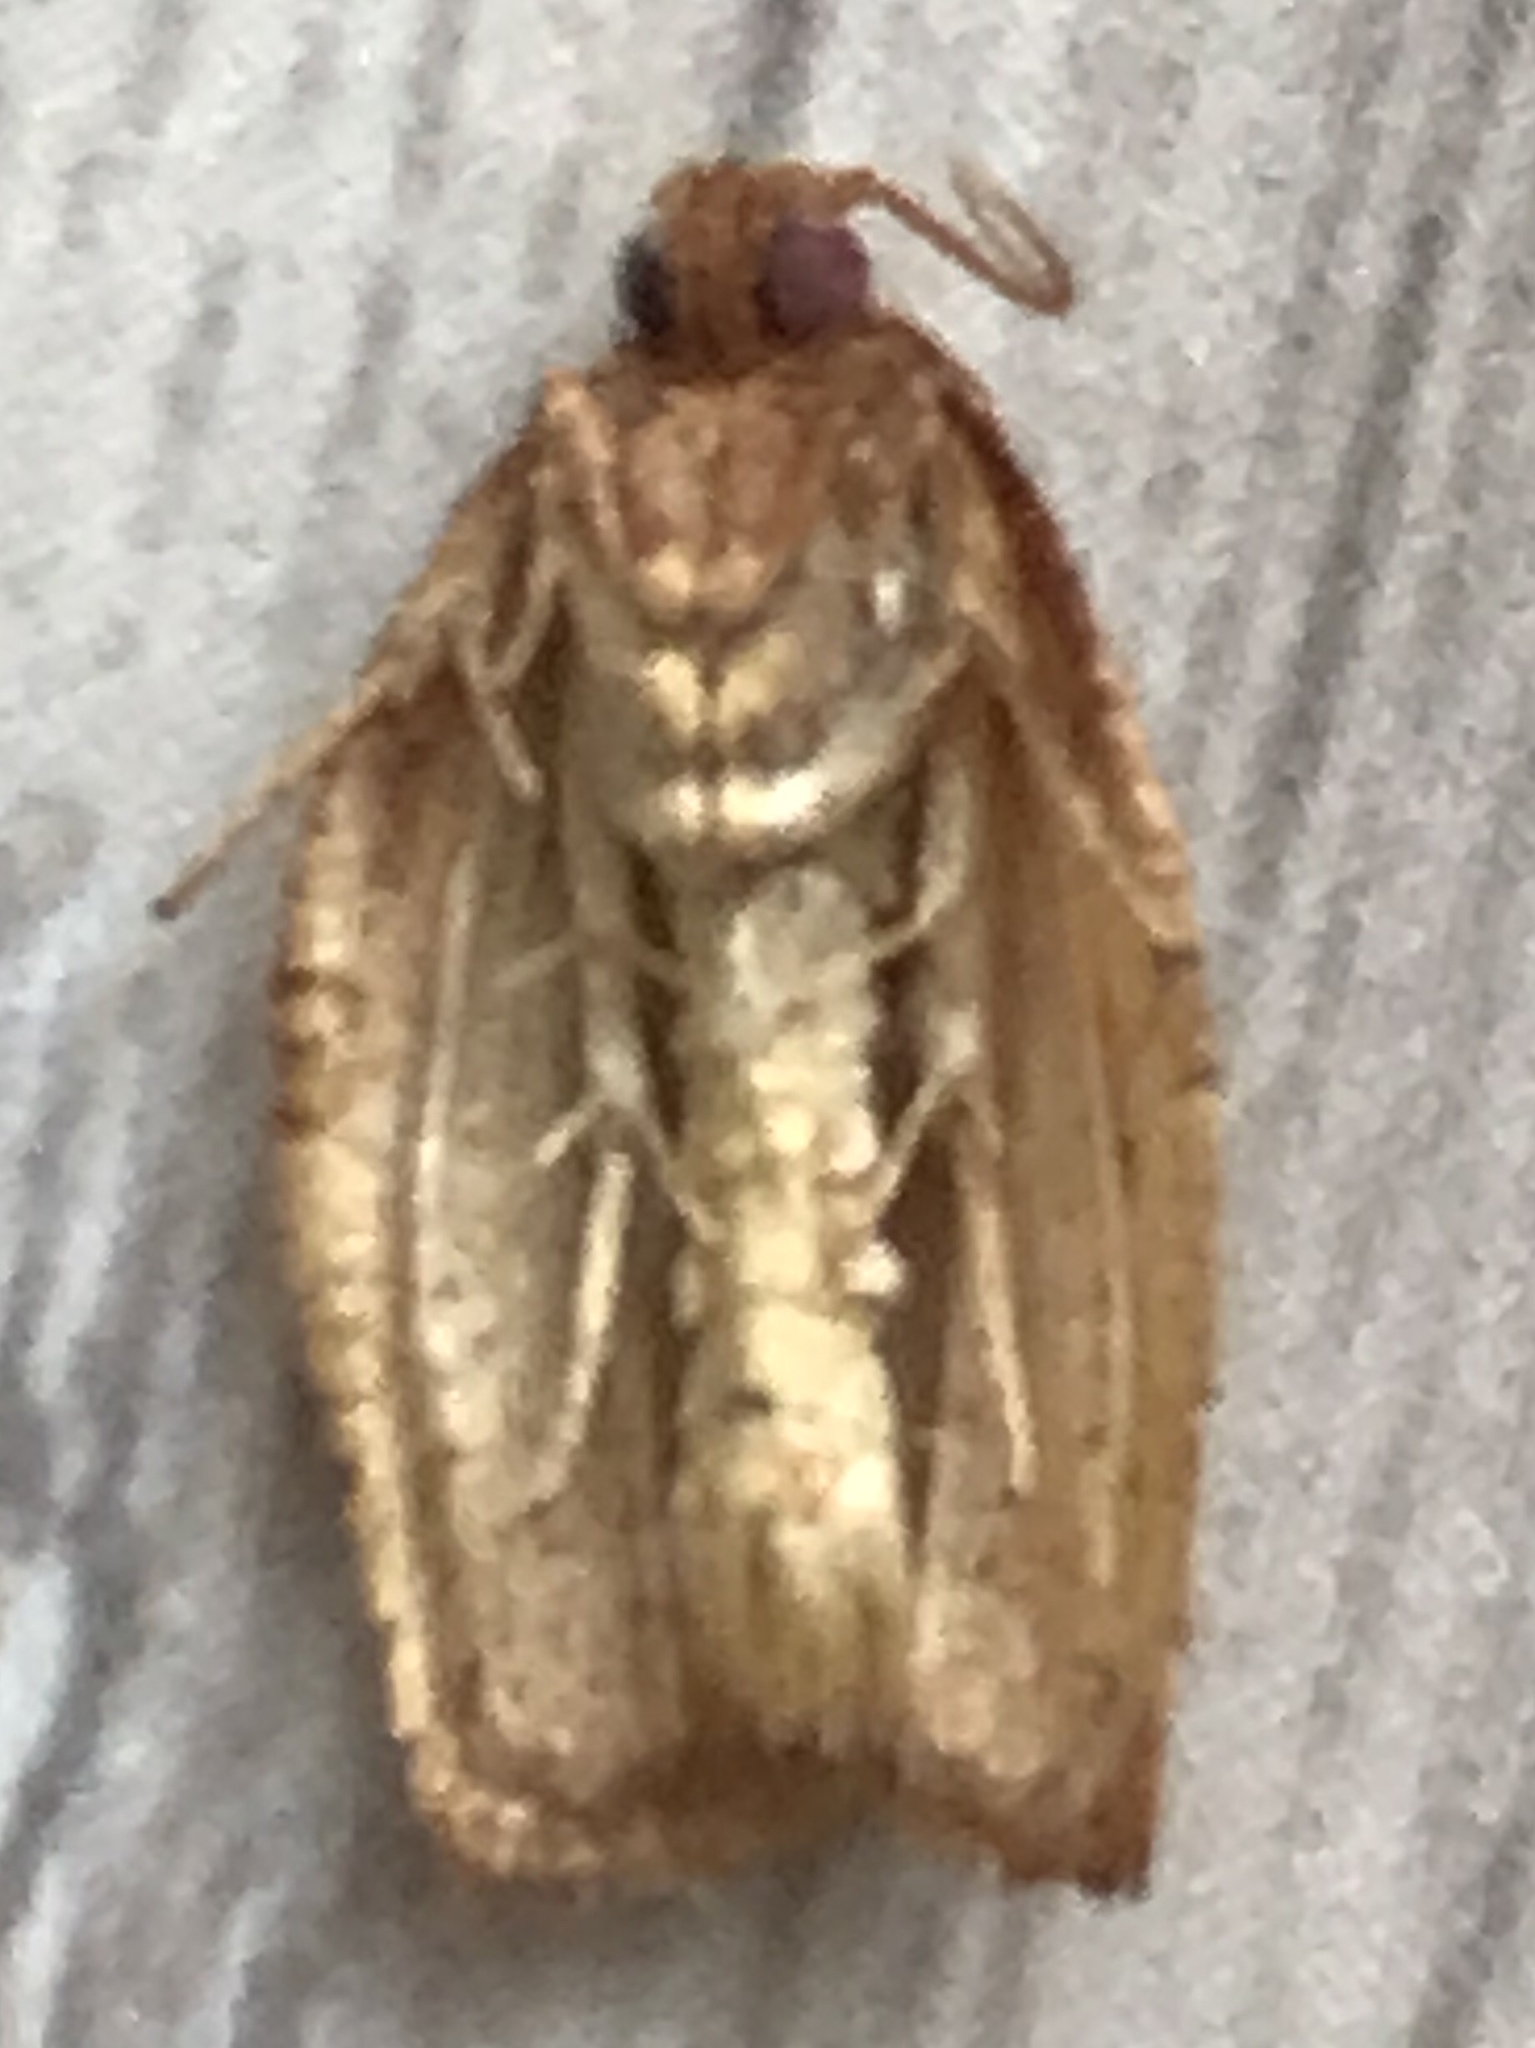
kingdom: Animalia
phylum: Arthropoda
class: Insecta
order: Lepidoptera
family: Tortricidae
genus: Choristoneura
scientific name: Choristoneura rosaceana
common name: Oblique-banded leafroller moth
